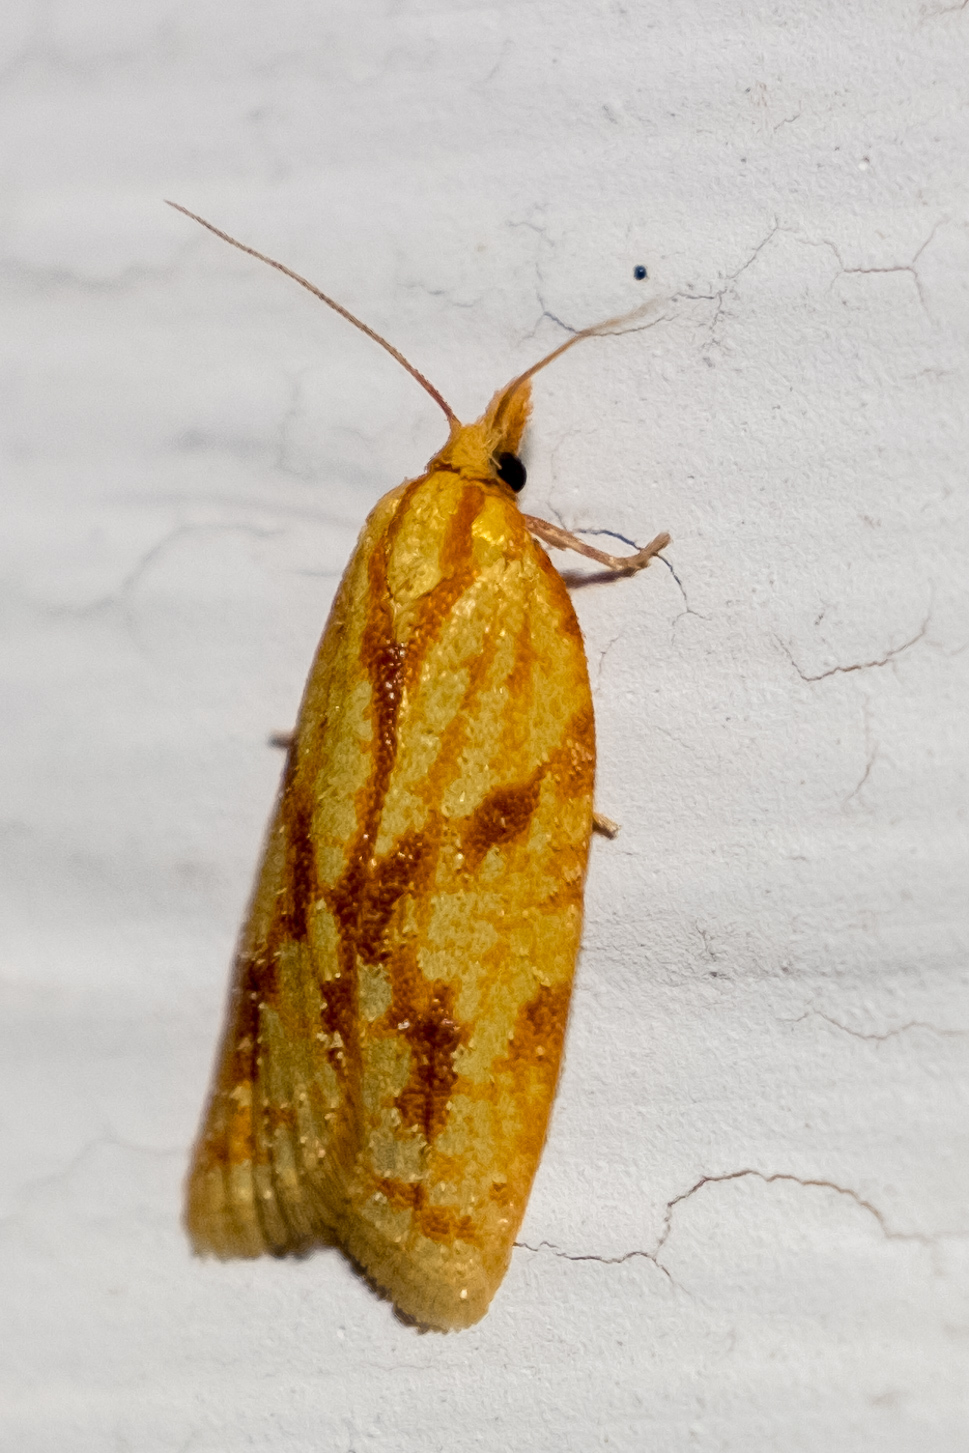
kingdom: Animalia
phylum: Arthropoda
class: Insecta
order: Lepidoptera
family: Tortricidae
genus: Sparganothis
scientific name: Sparganothis sulfureana
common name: Sparganothis fruitworm moth
